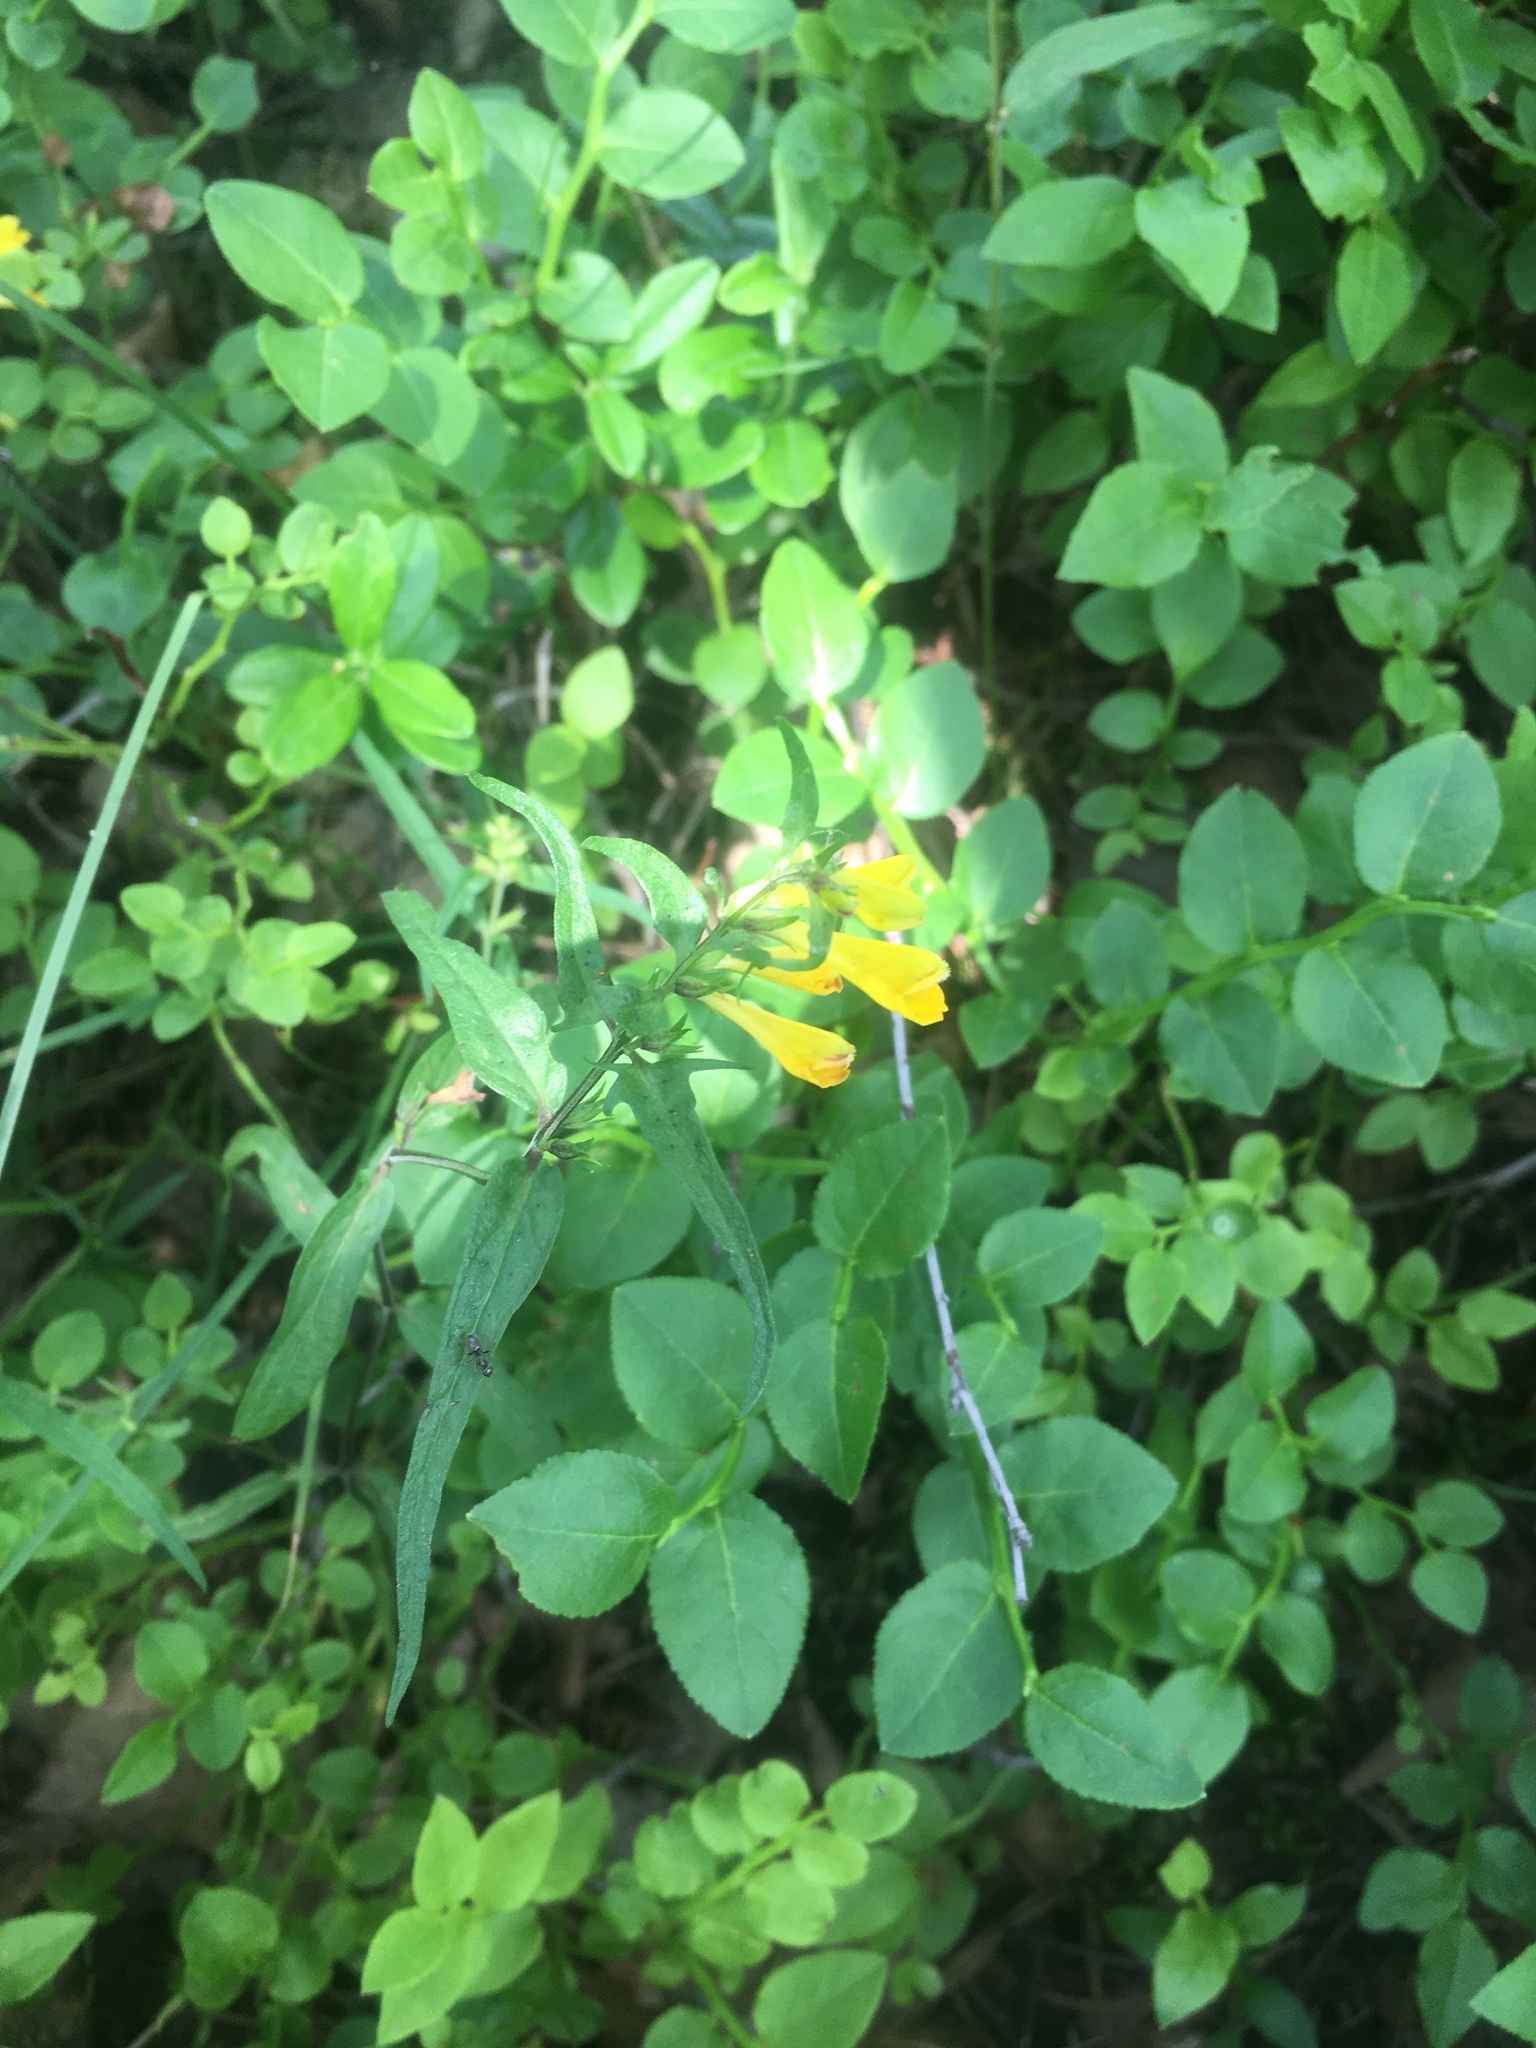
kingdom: Plantae
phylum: Tracheophyta
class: Magnoliopsida
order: Lamiales
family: Orobanchaceae
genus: Melampyrum
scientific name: Melampyrum pratense
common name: Common cow-wheat
